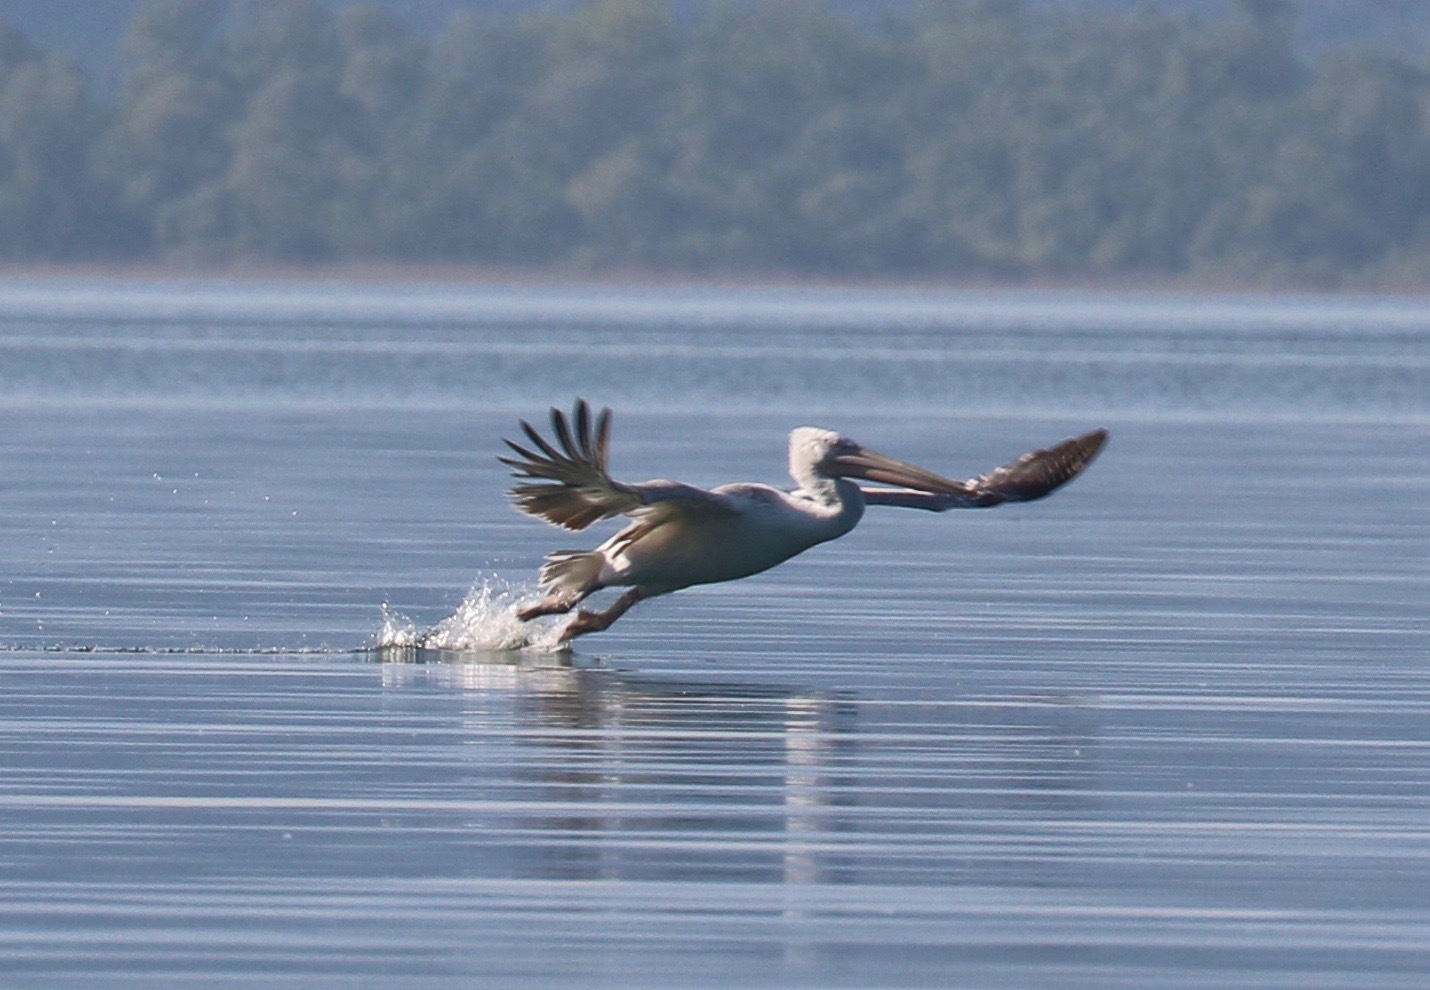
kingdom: Animalia
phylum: Chordata
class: Aves
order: Pelecaniformes
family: Pelecanidae
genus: Pelecanus
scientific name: Pelecanus crispus
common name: Dalmatian pelican
